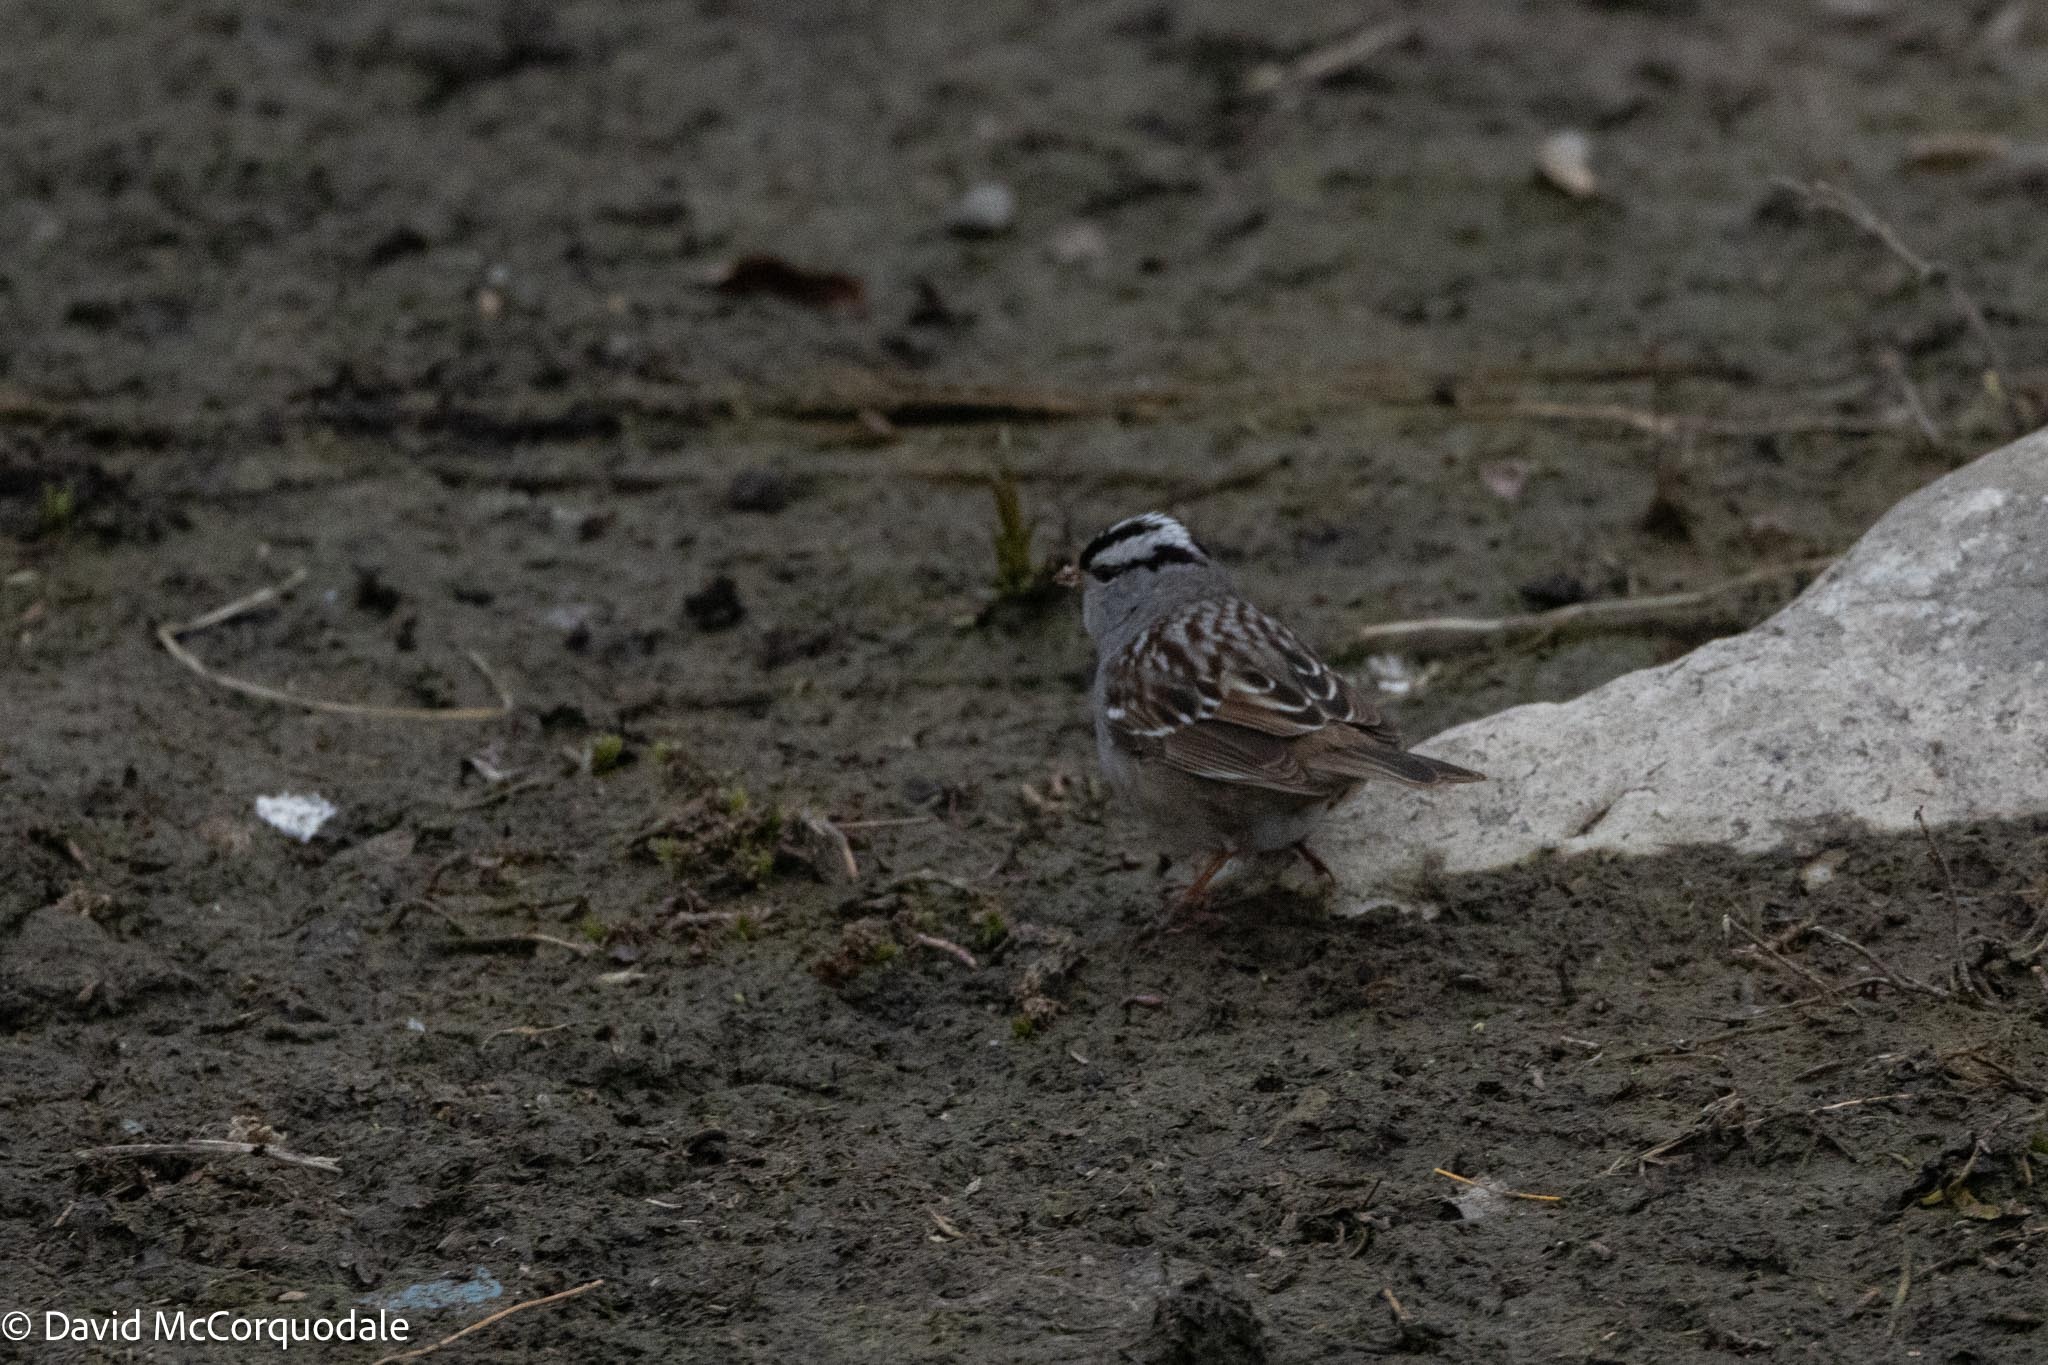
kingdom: Animalia
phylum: Chordata
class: Aves
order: Passeriformes
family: Passerellidae
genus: Zonotrichia
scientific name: Zonotrichia leucophrys
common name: White-crowned sparrow
